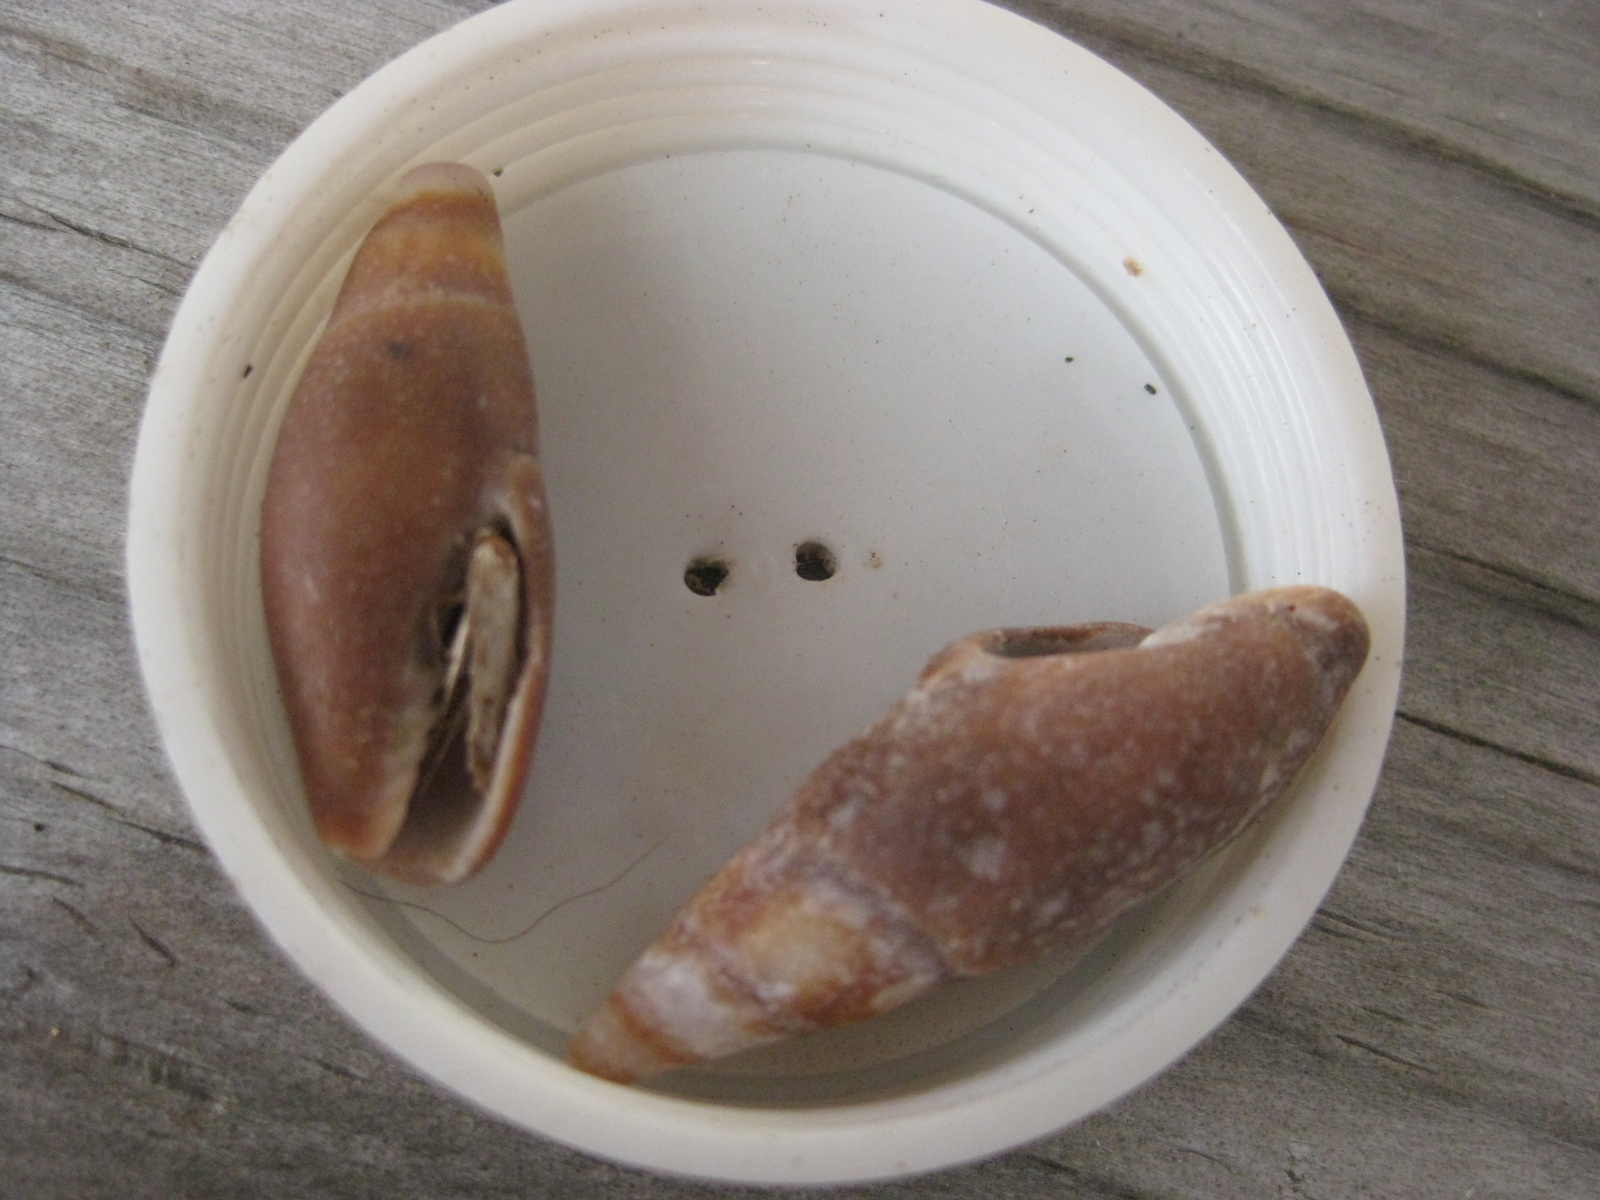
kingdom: Animalia
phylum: Mollusca
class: Gastropoda
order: Neogastropoda
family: Mitridae
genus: Isara
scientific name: Isara carbonaria
